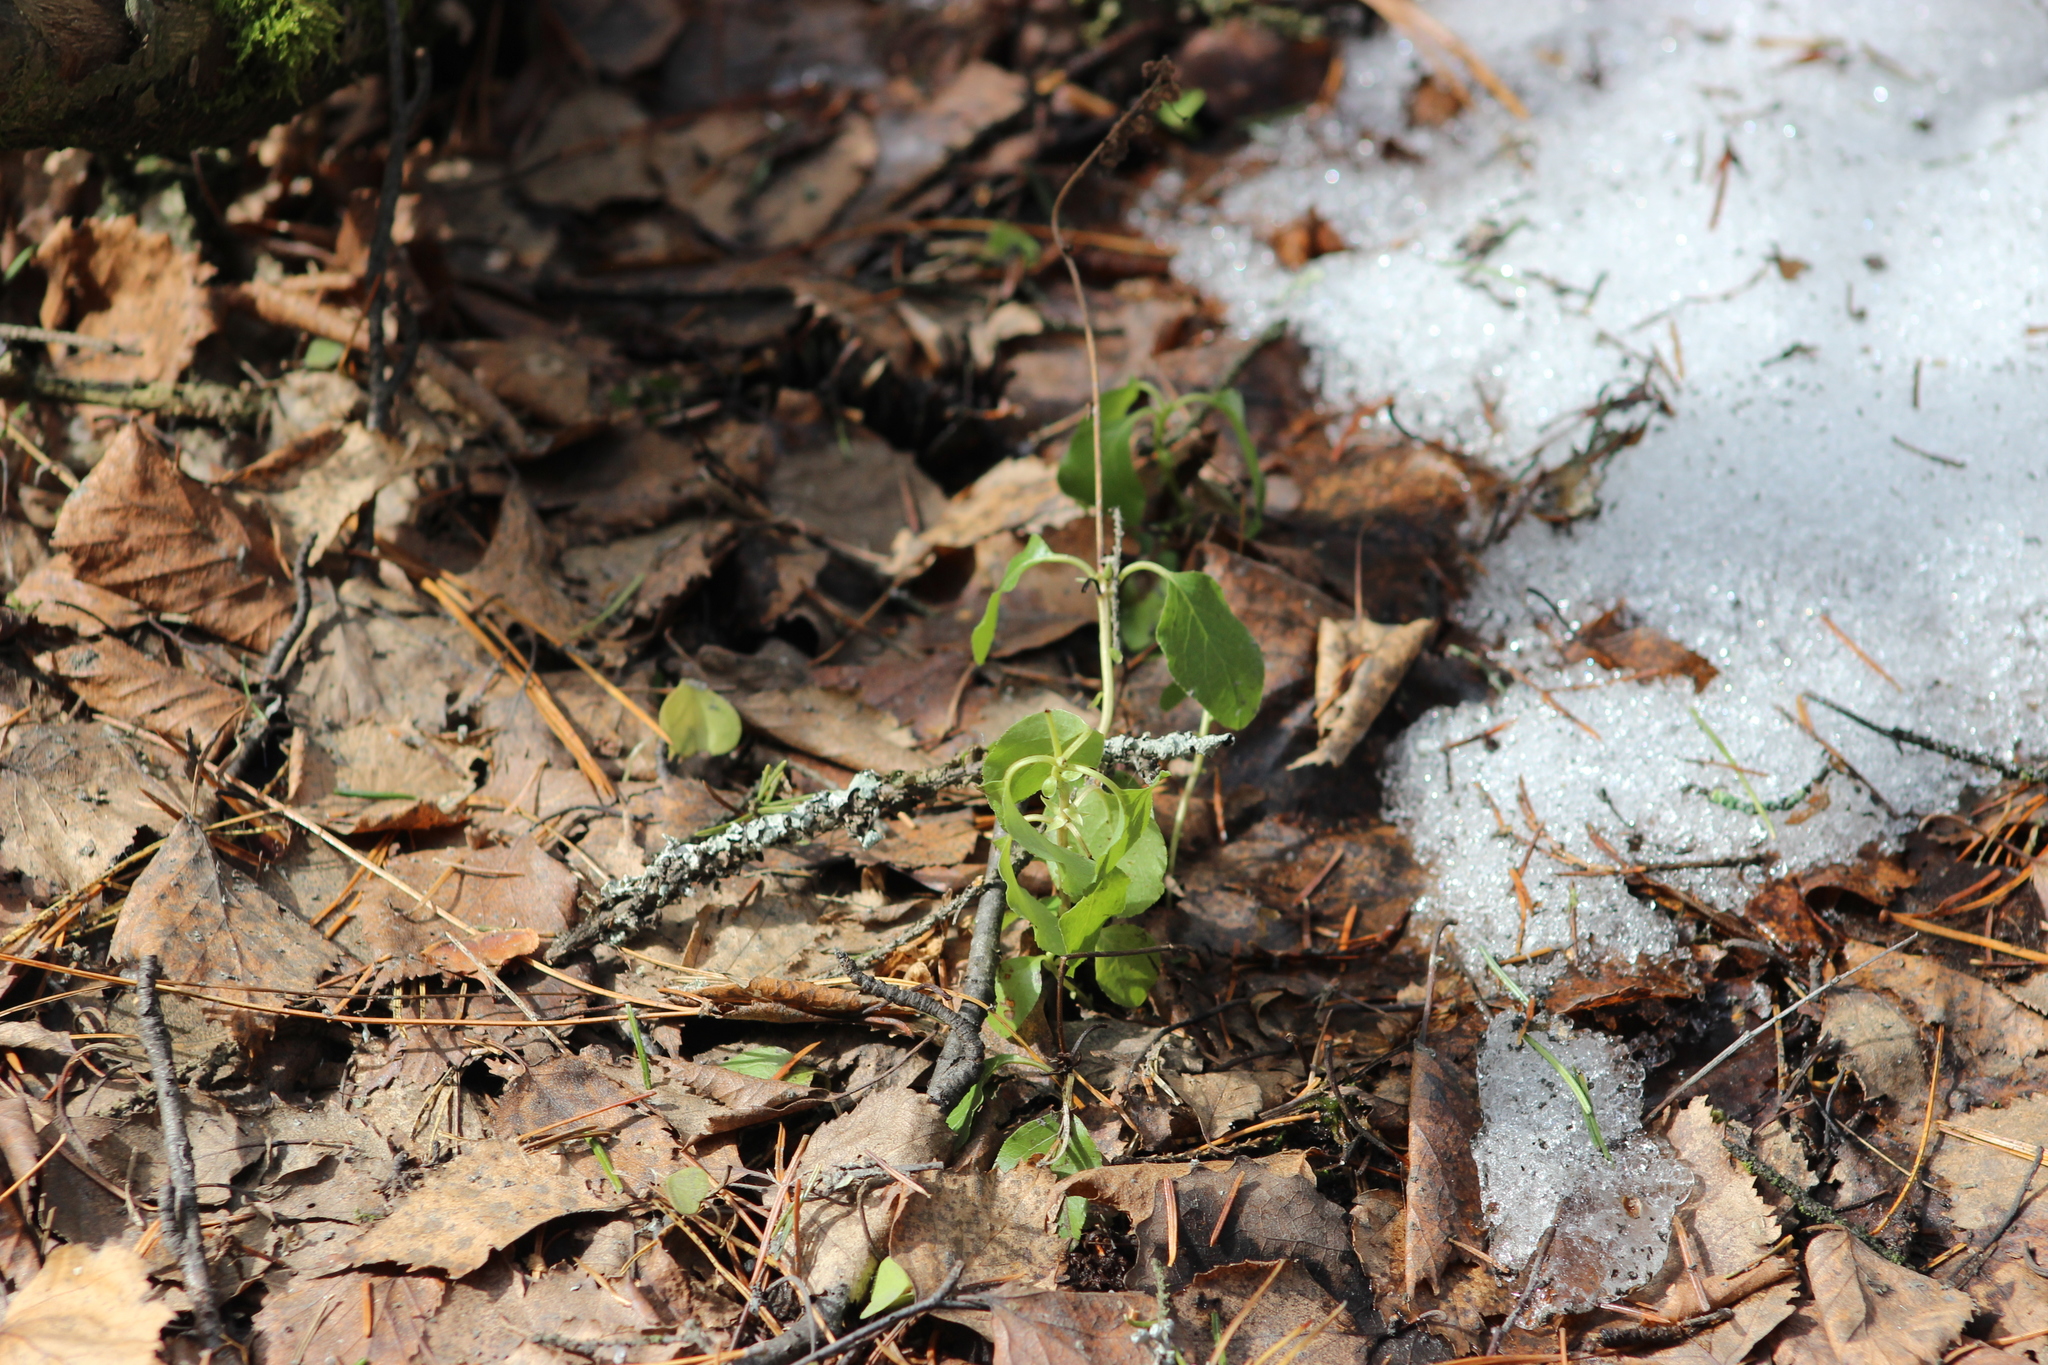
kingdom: Plantae
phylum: Tracheophyta
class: Magnoliopsida
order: Ericales
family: Ericaceae
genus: Orthilia
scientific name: Orthilia secunda
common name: One-sided orthilia
